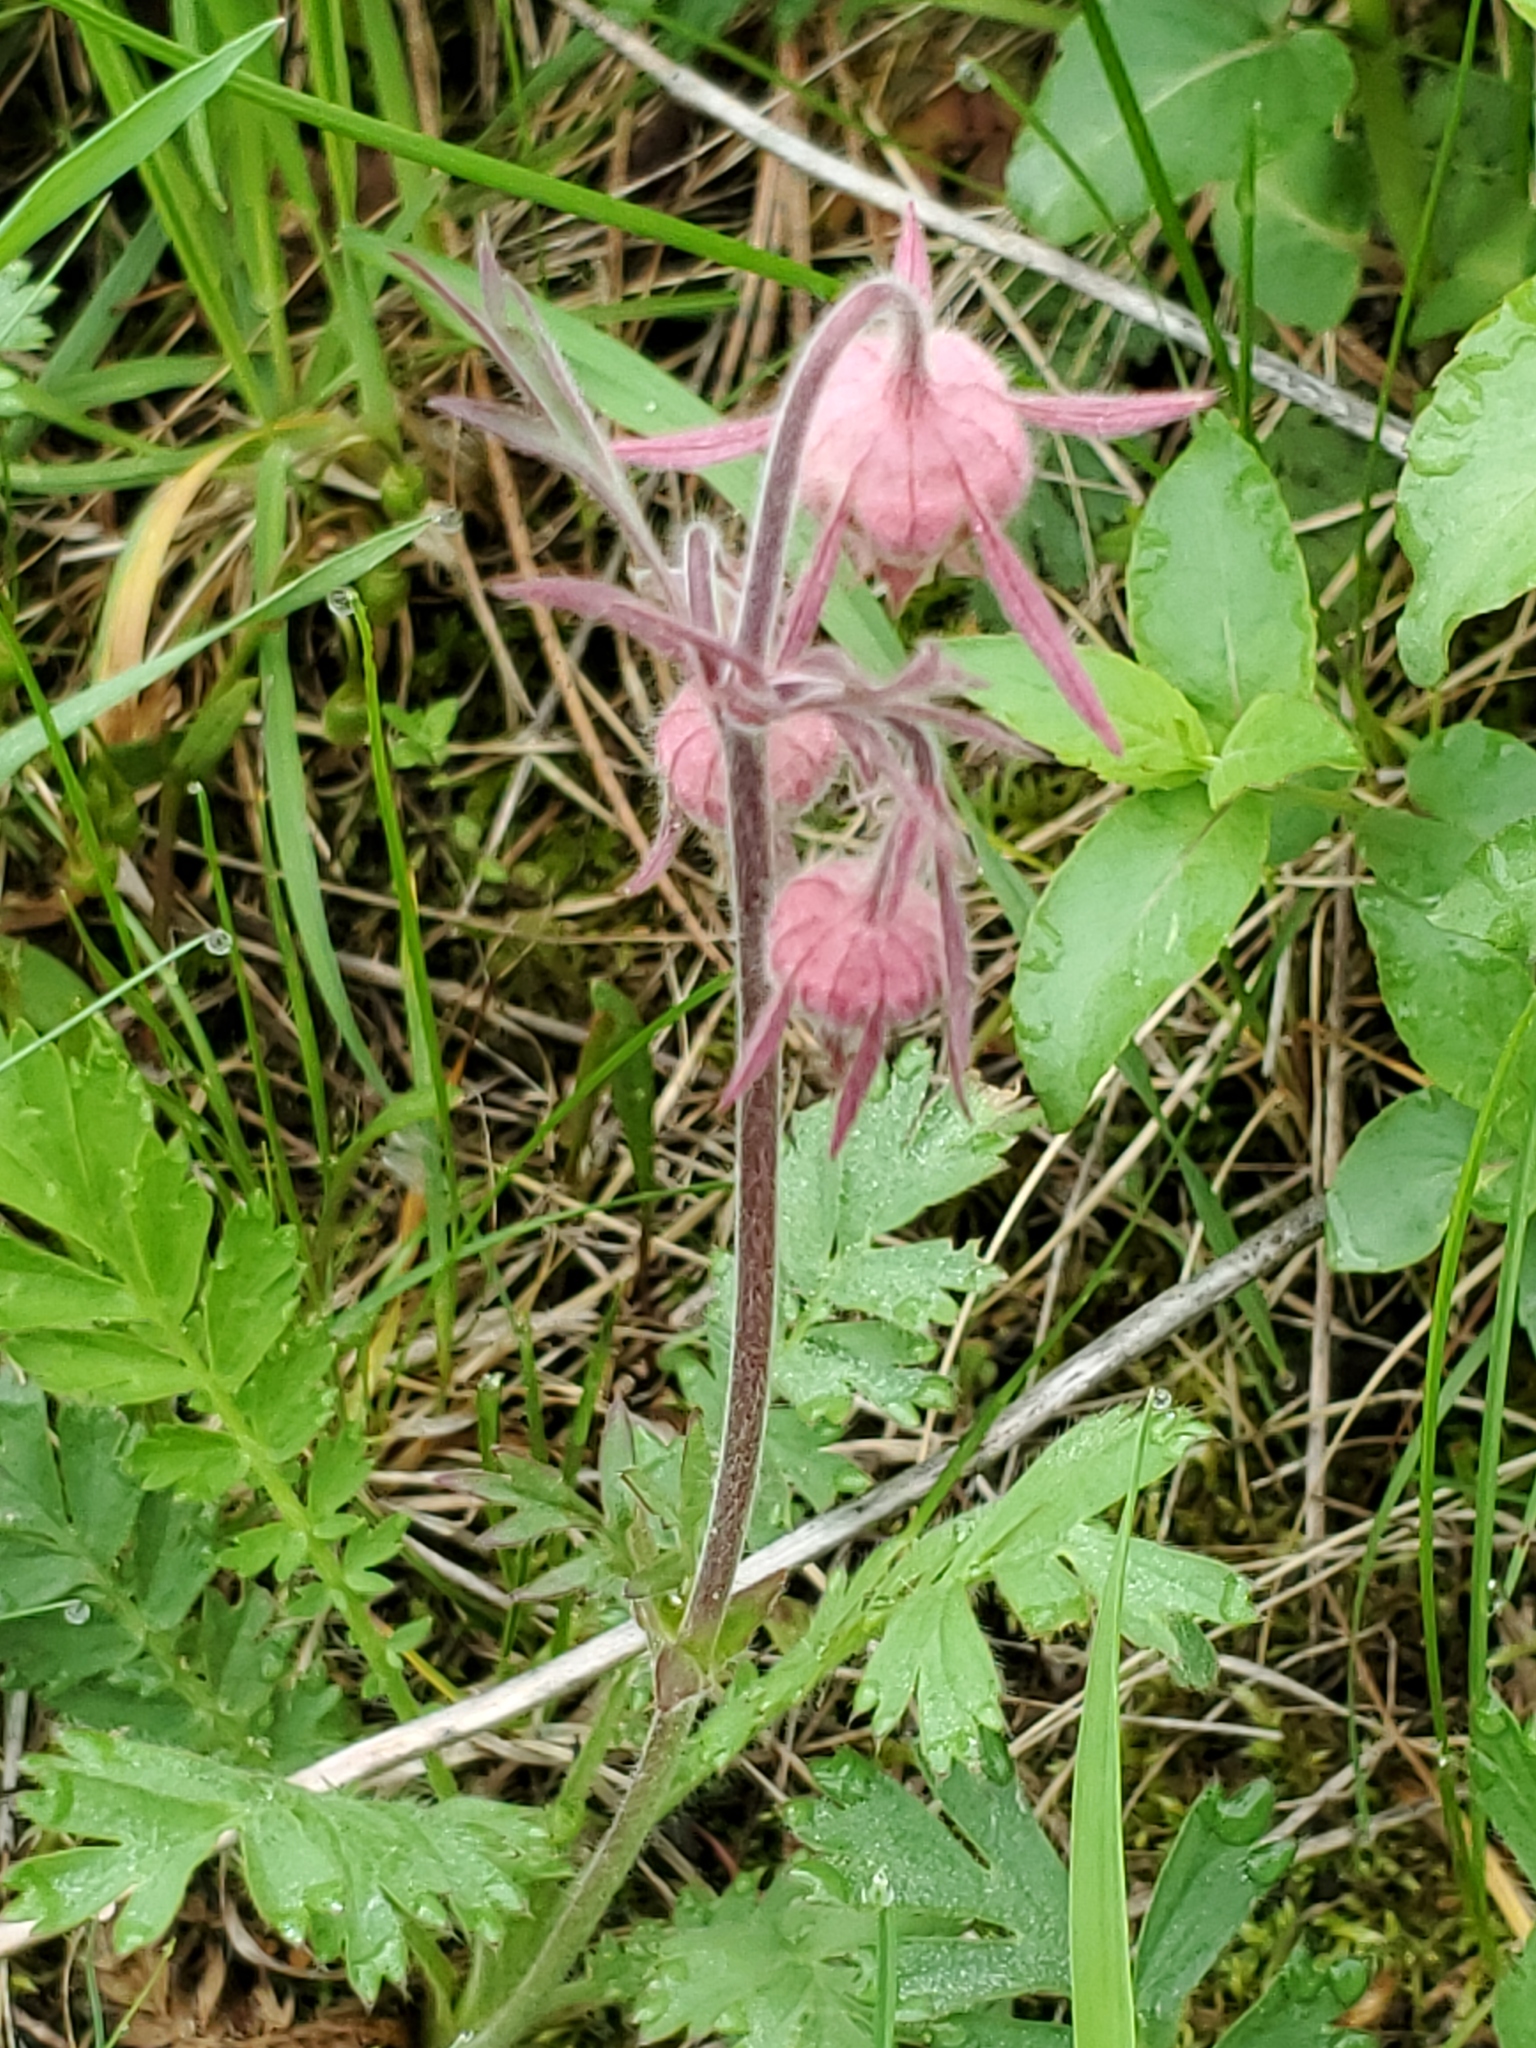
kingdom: Plantae
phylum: Tracheophyta
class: Magnoliopsida
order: Rosales
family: Rosaceae
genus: Geum
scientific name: Geum triflorum
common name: Old man's whiskers
